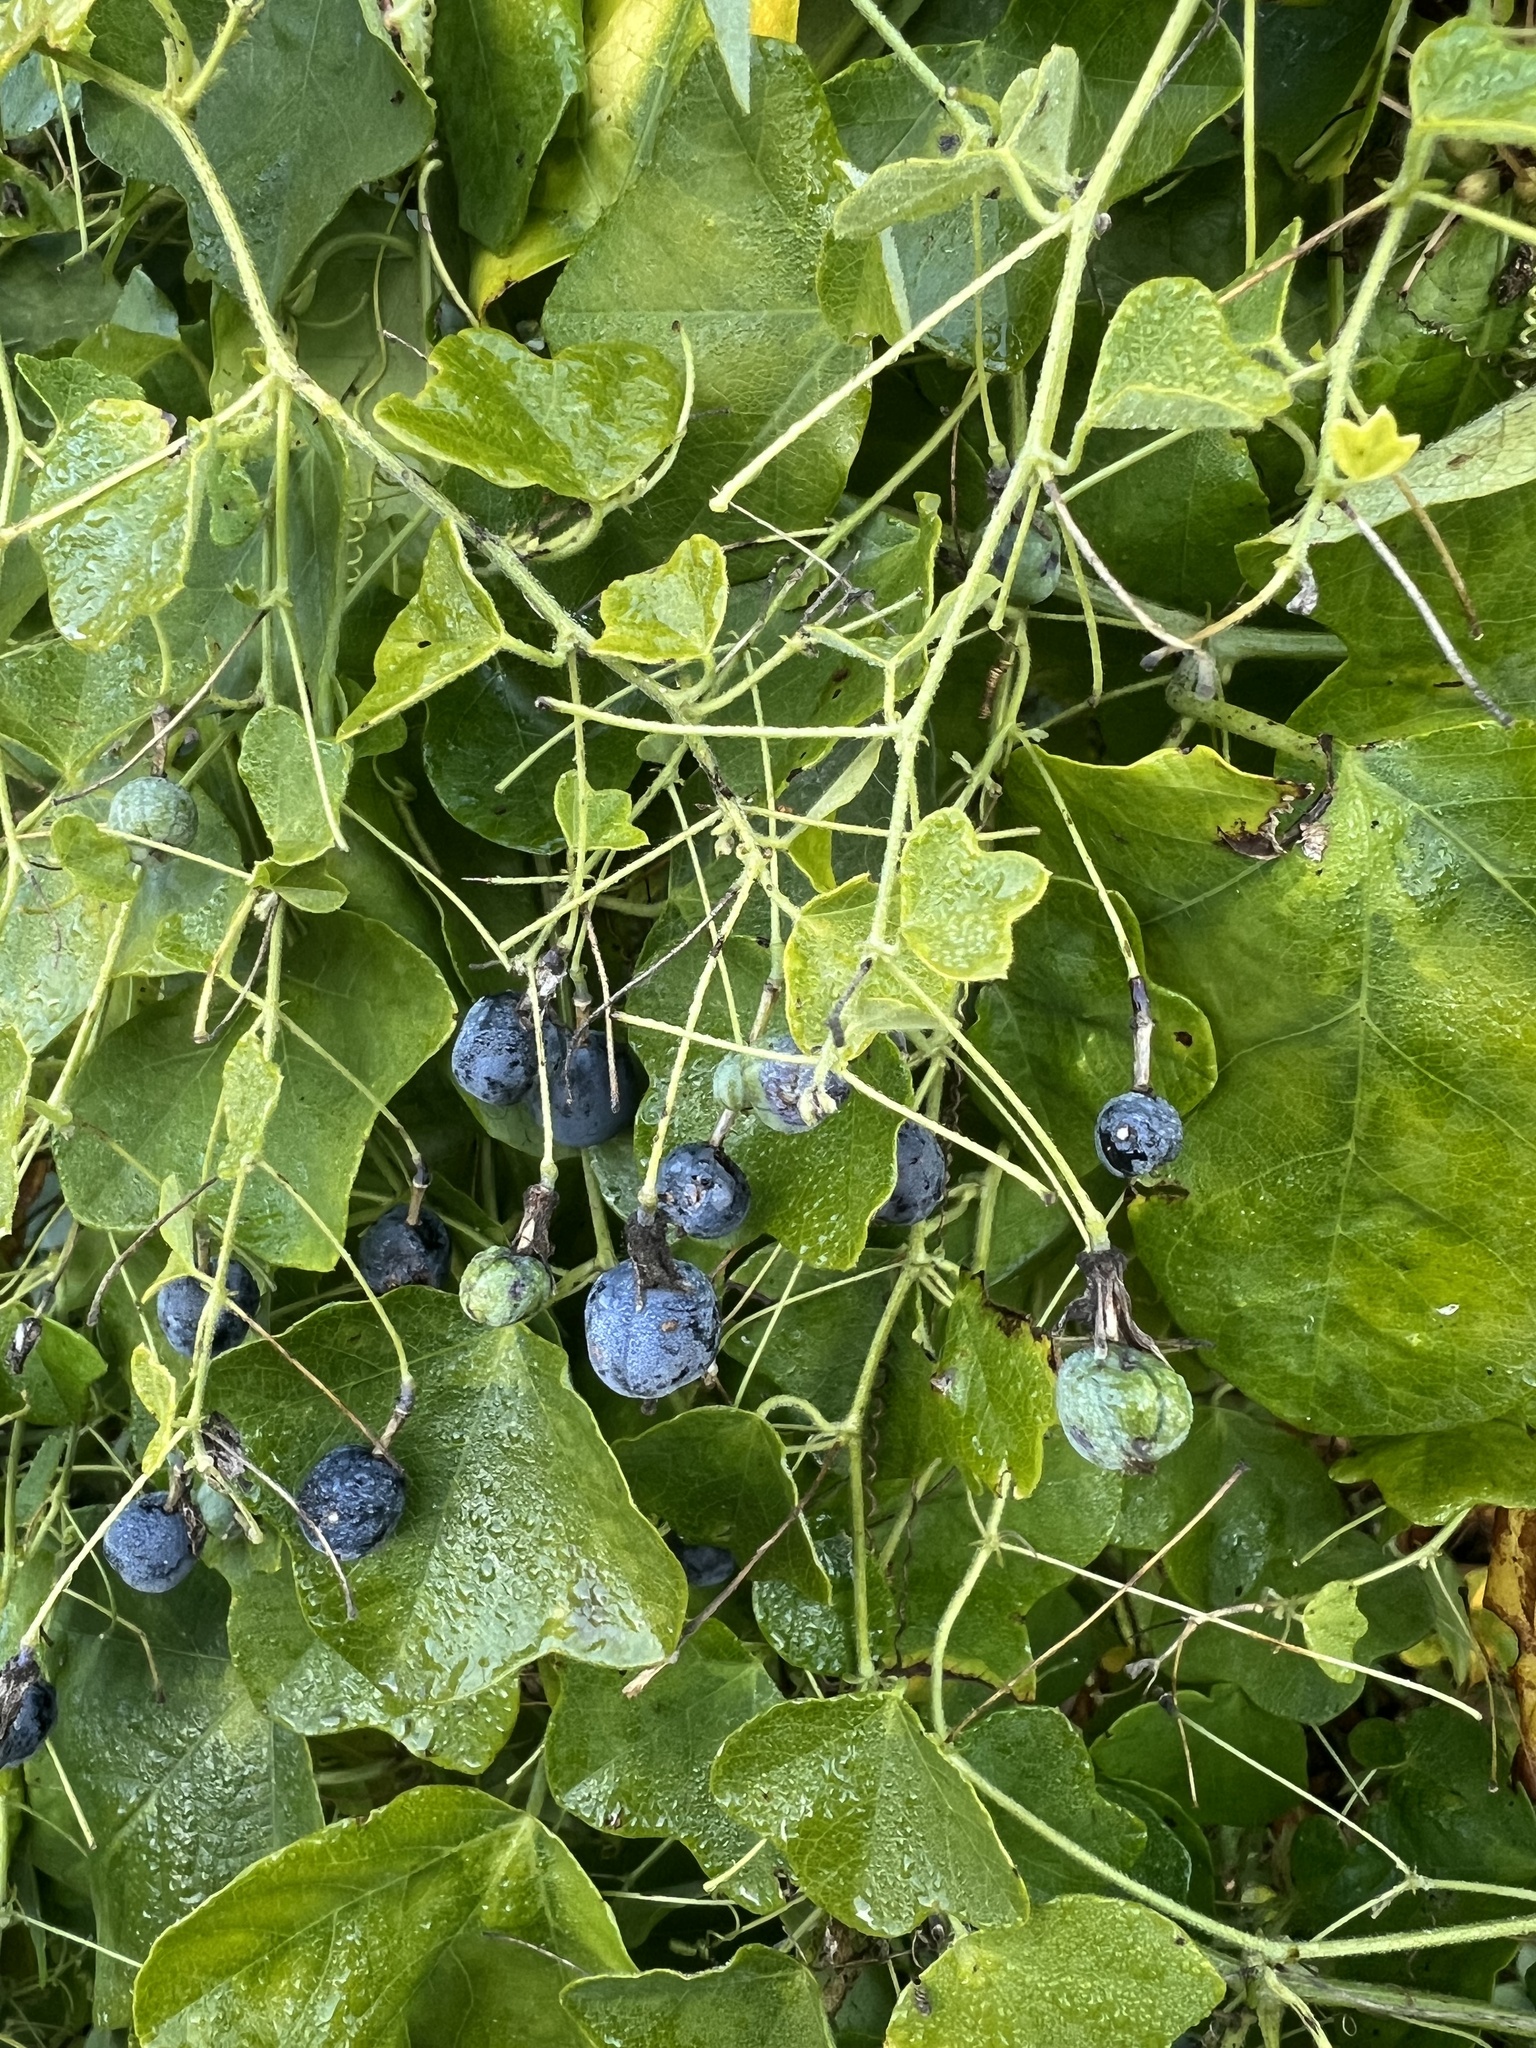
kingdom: Plantae
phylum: Tracheophyta
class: Magnoliopsida
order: Malpighiales
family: Passifloraceae
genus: Passiflora
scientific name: Passiflora lutea
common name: Yellow passionflower
